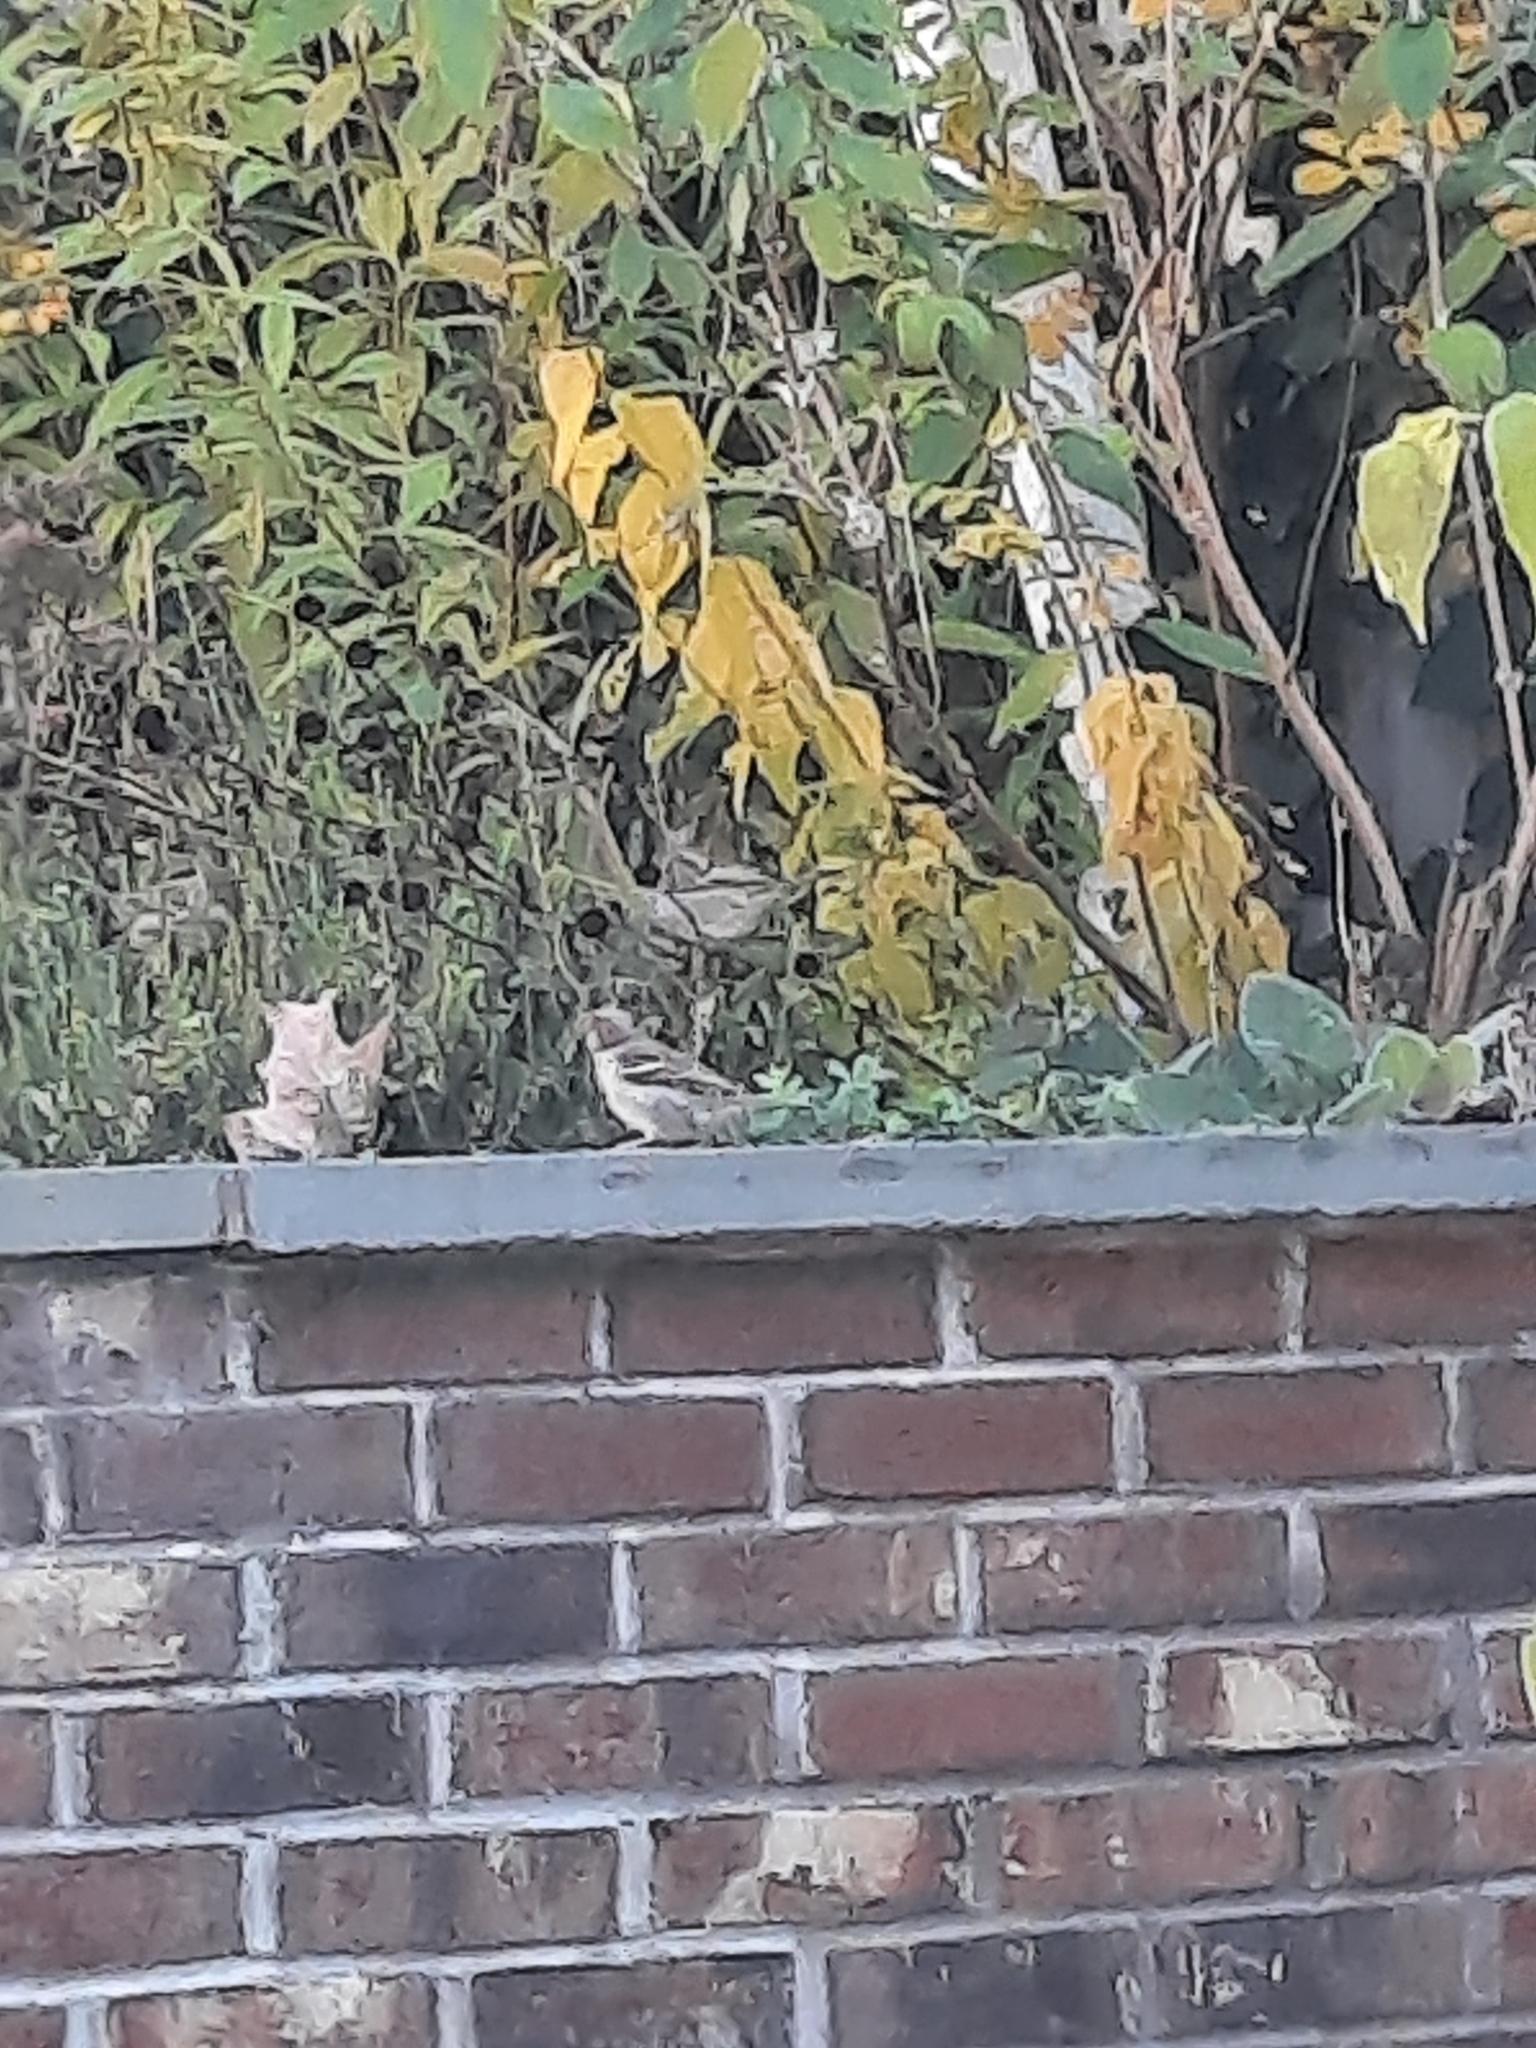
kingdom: Animalia
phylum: Chordata
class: Aves
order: Passeriformes
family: Passeridae
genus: Passer
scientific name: Passer domesticus
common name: House sparrow
